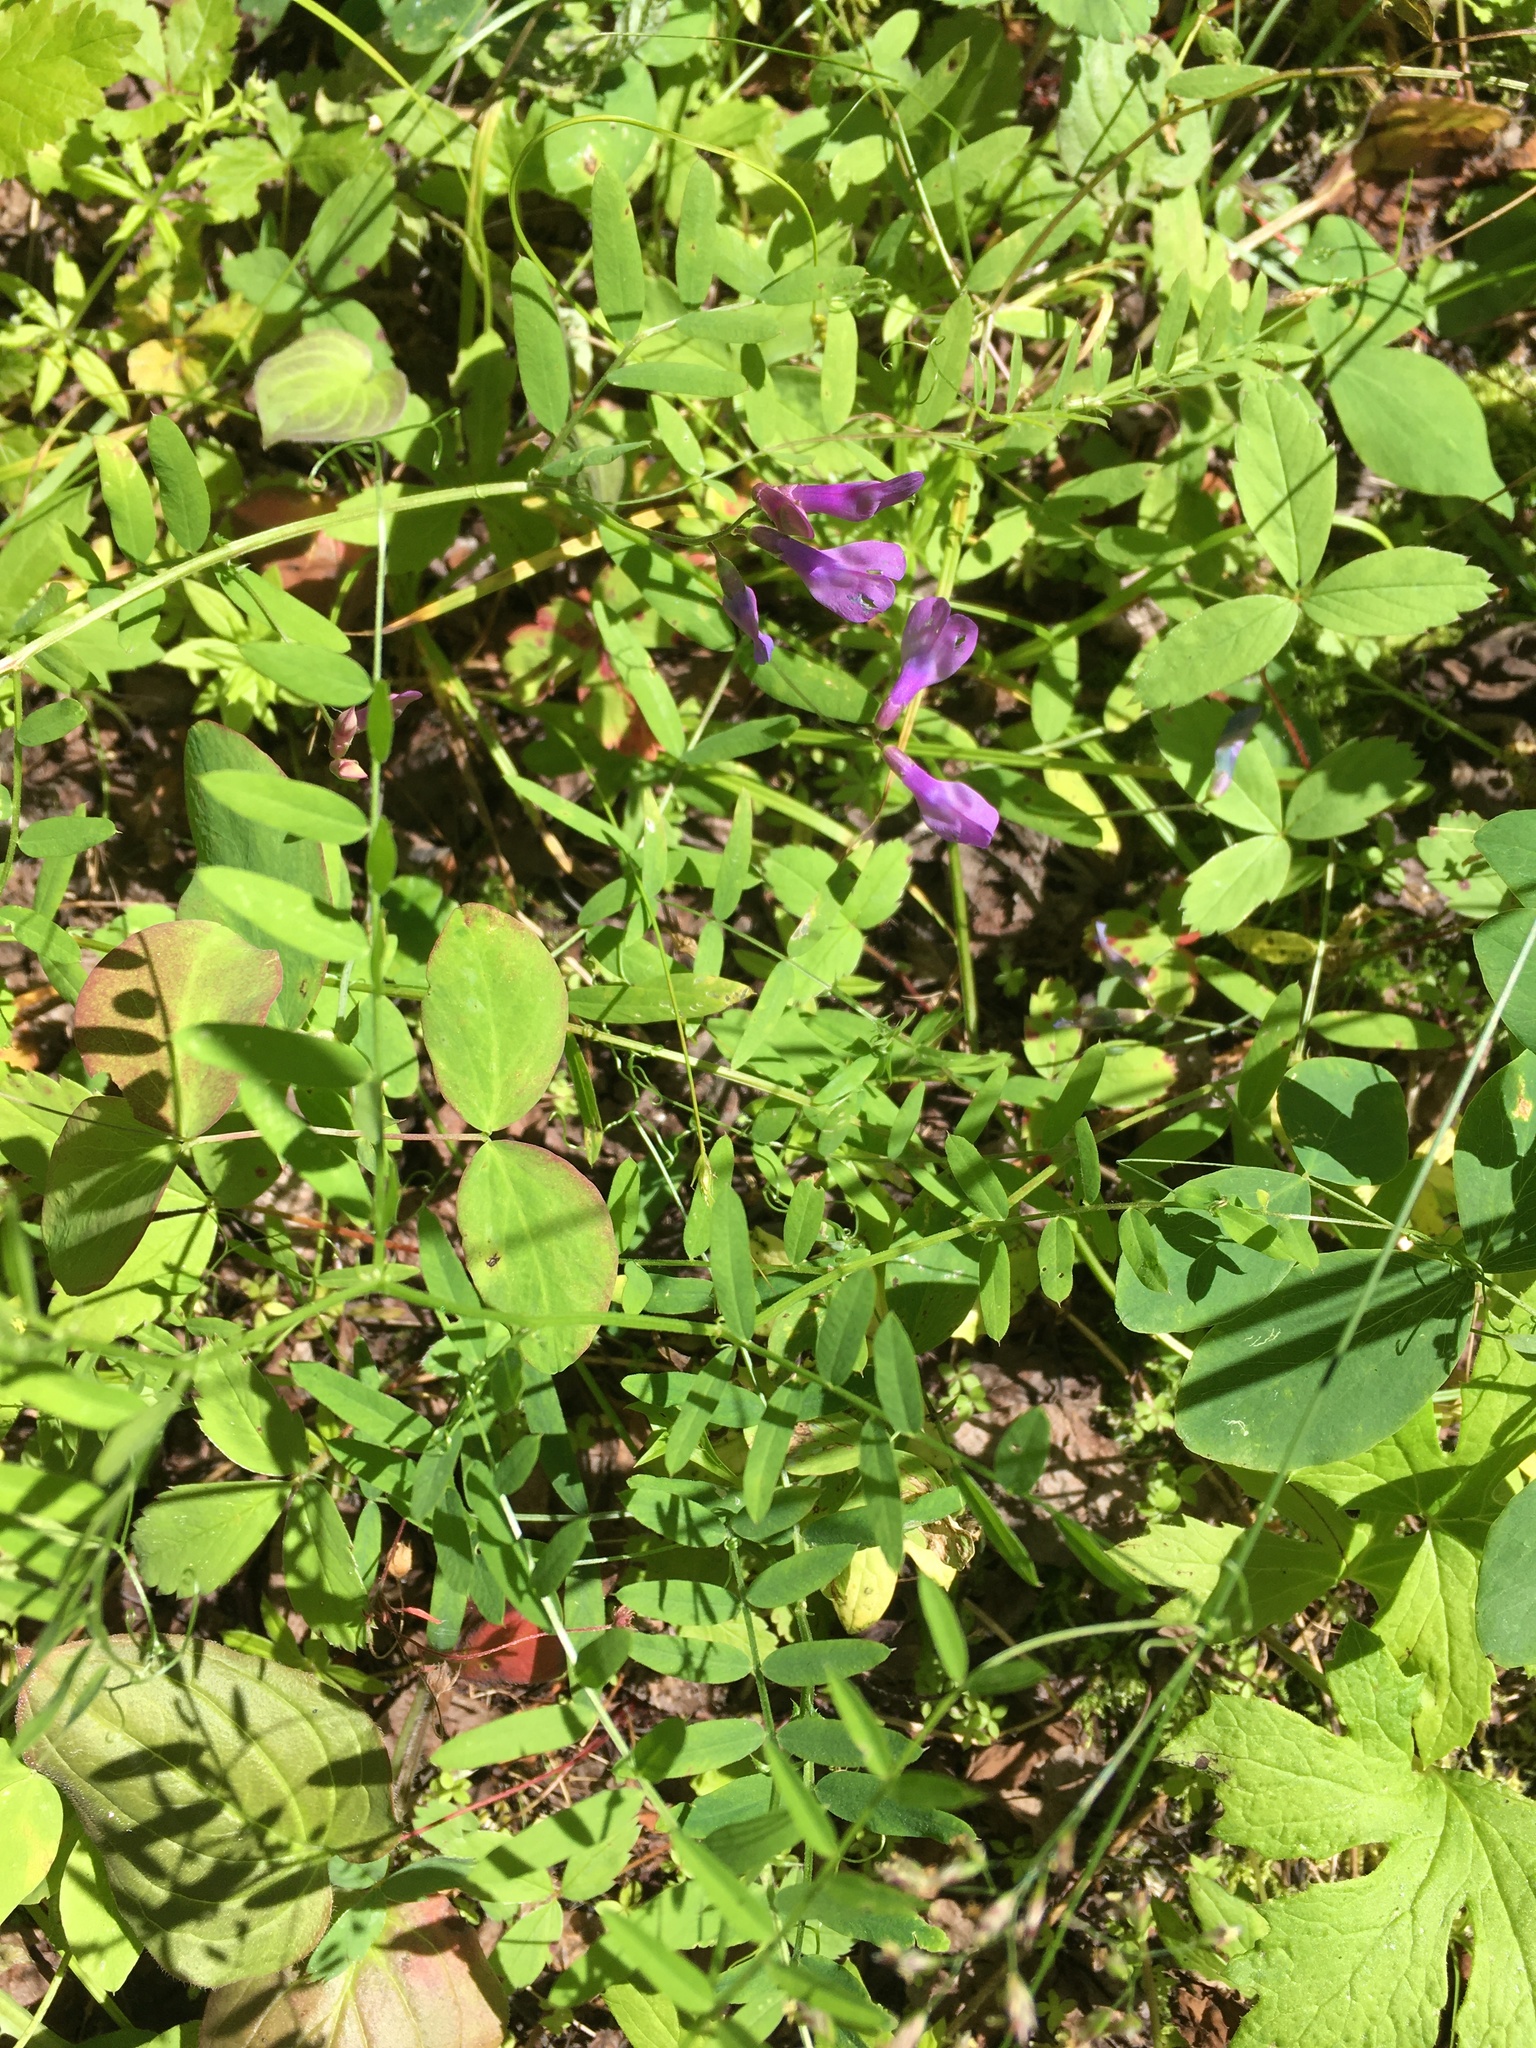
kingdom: Plantae
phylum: Tracheophyta
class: Magnoliopsida
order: Fabales
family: Fabaceae
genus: Vicia
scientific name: Vicia americana
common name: American vetch
